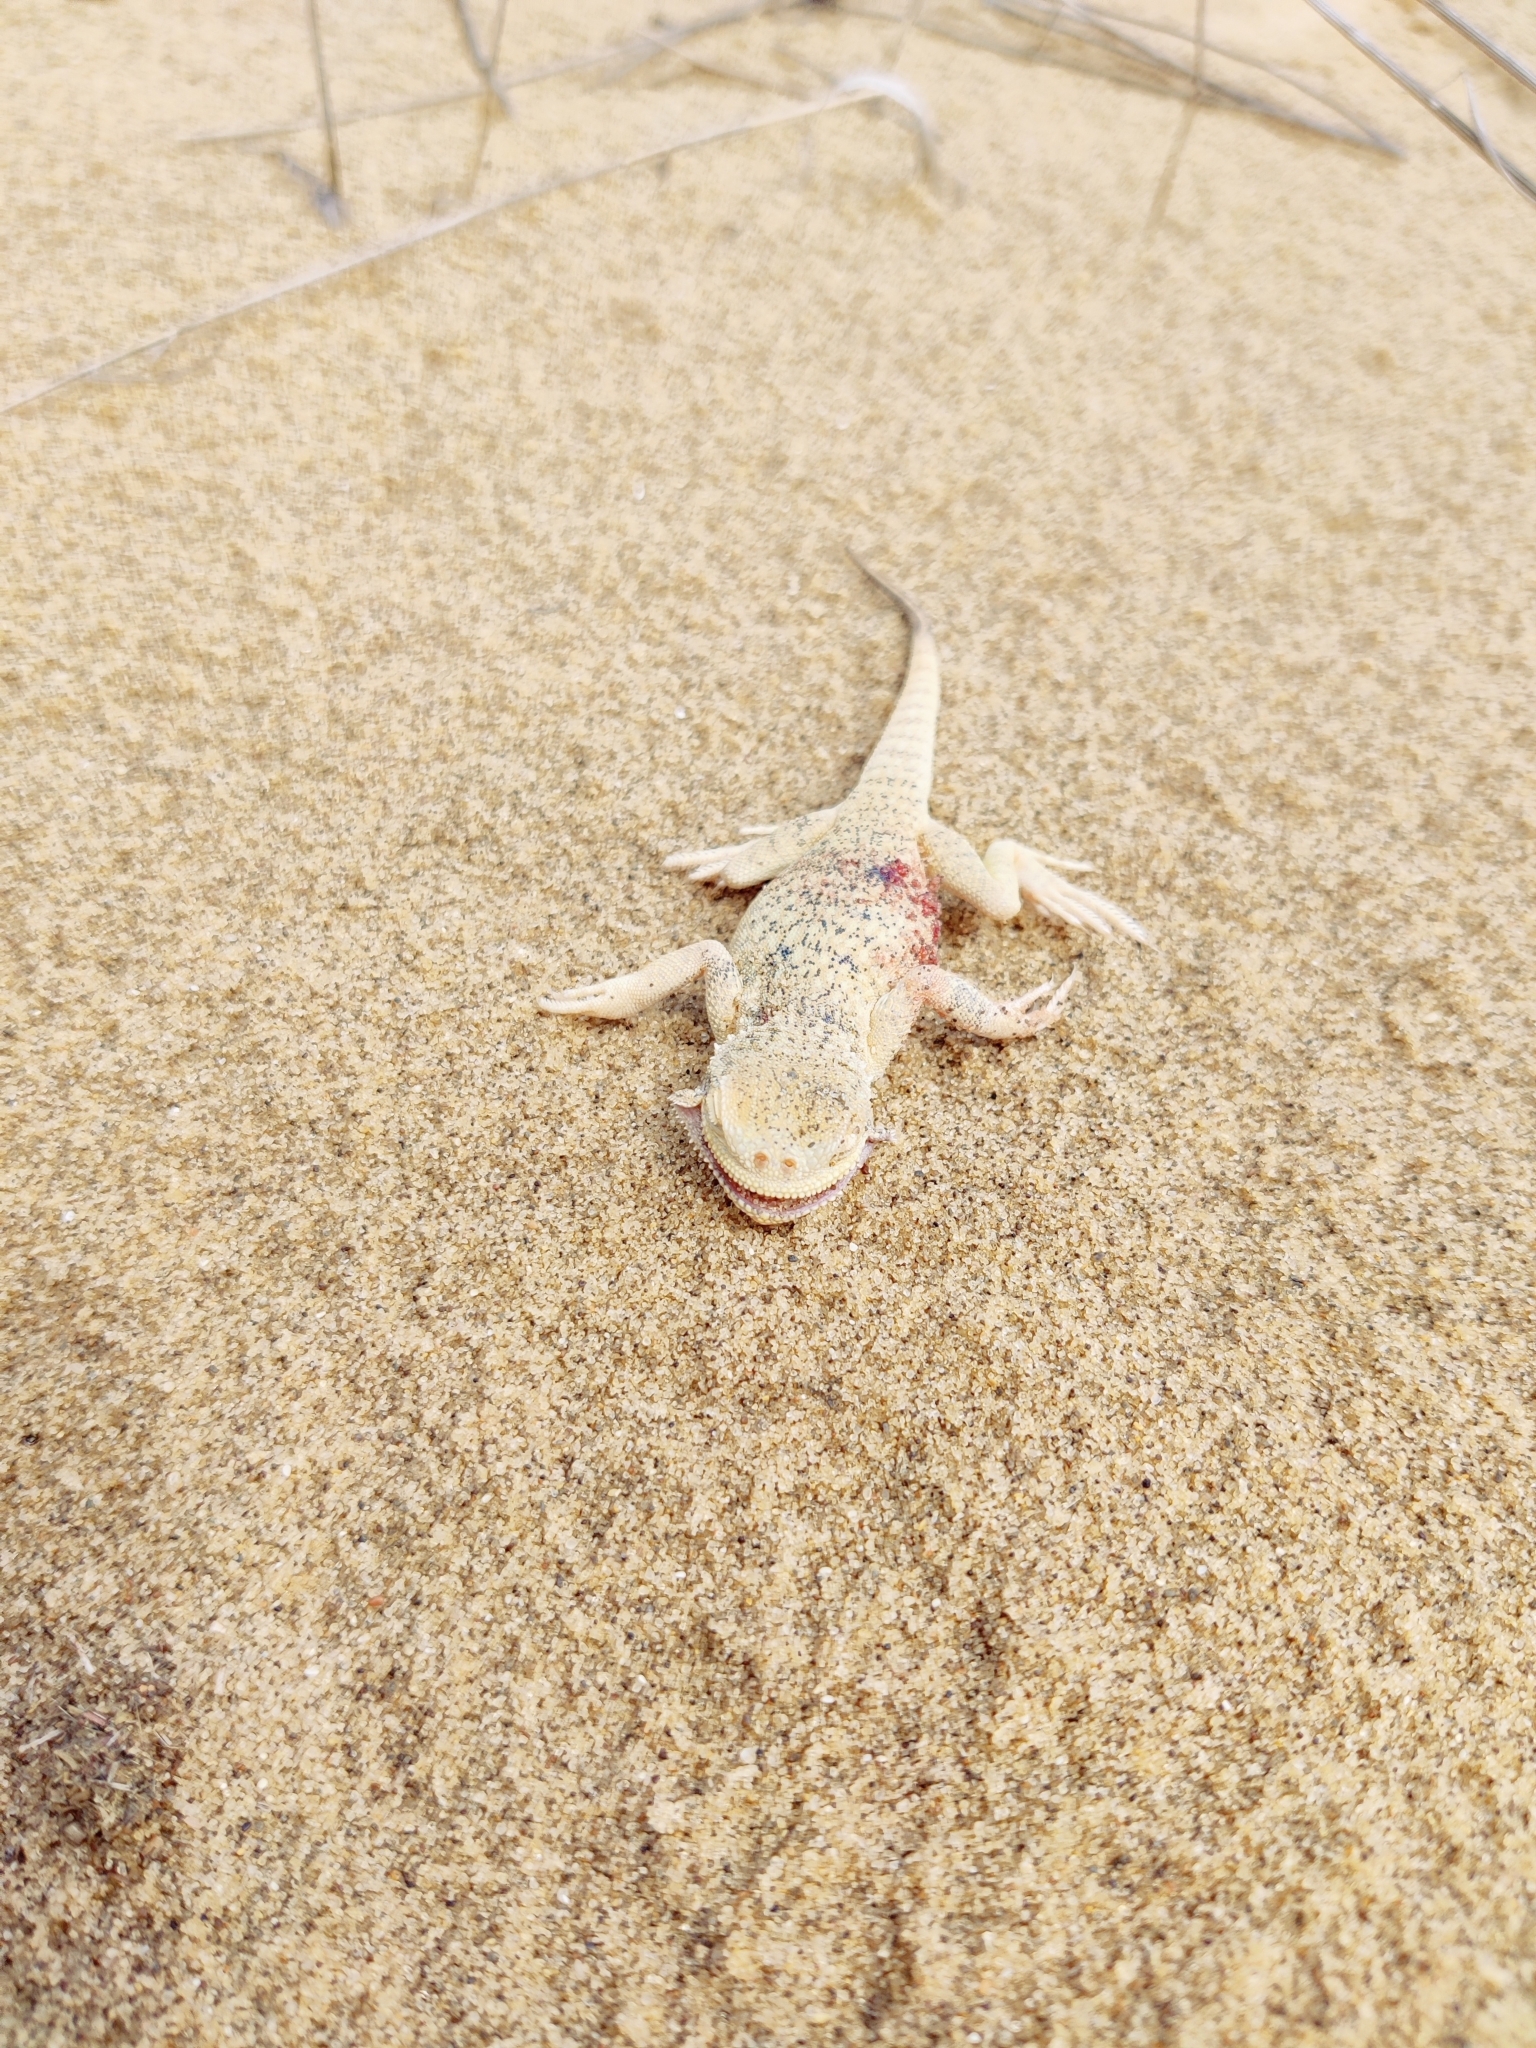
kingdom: Animalia
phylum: Chordata
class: Squamata
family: Agamidae
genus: Phrynocephalus
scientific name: Phrynocephalus mystaceus
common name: Secret toadhead agama
